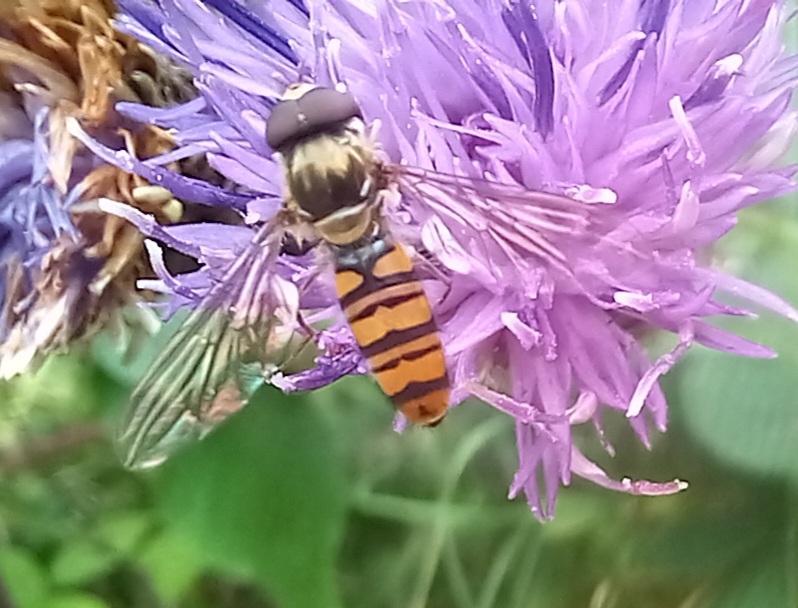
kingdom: Animalia
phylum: Arthropoda
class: Insecta
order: Diptera
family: Syrphidae
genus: Episyrphus
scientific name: Episyrphus balteatus
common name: Marmalade hoverfly
